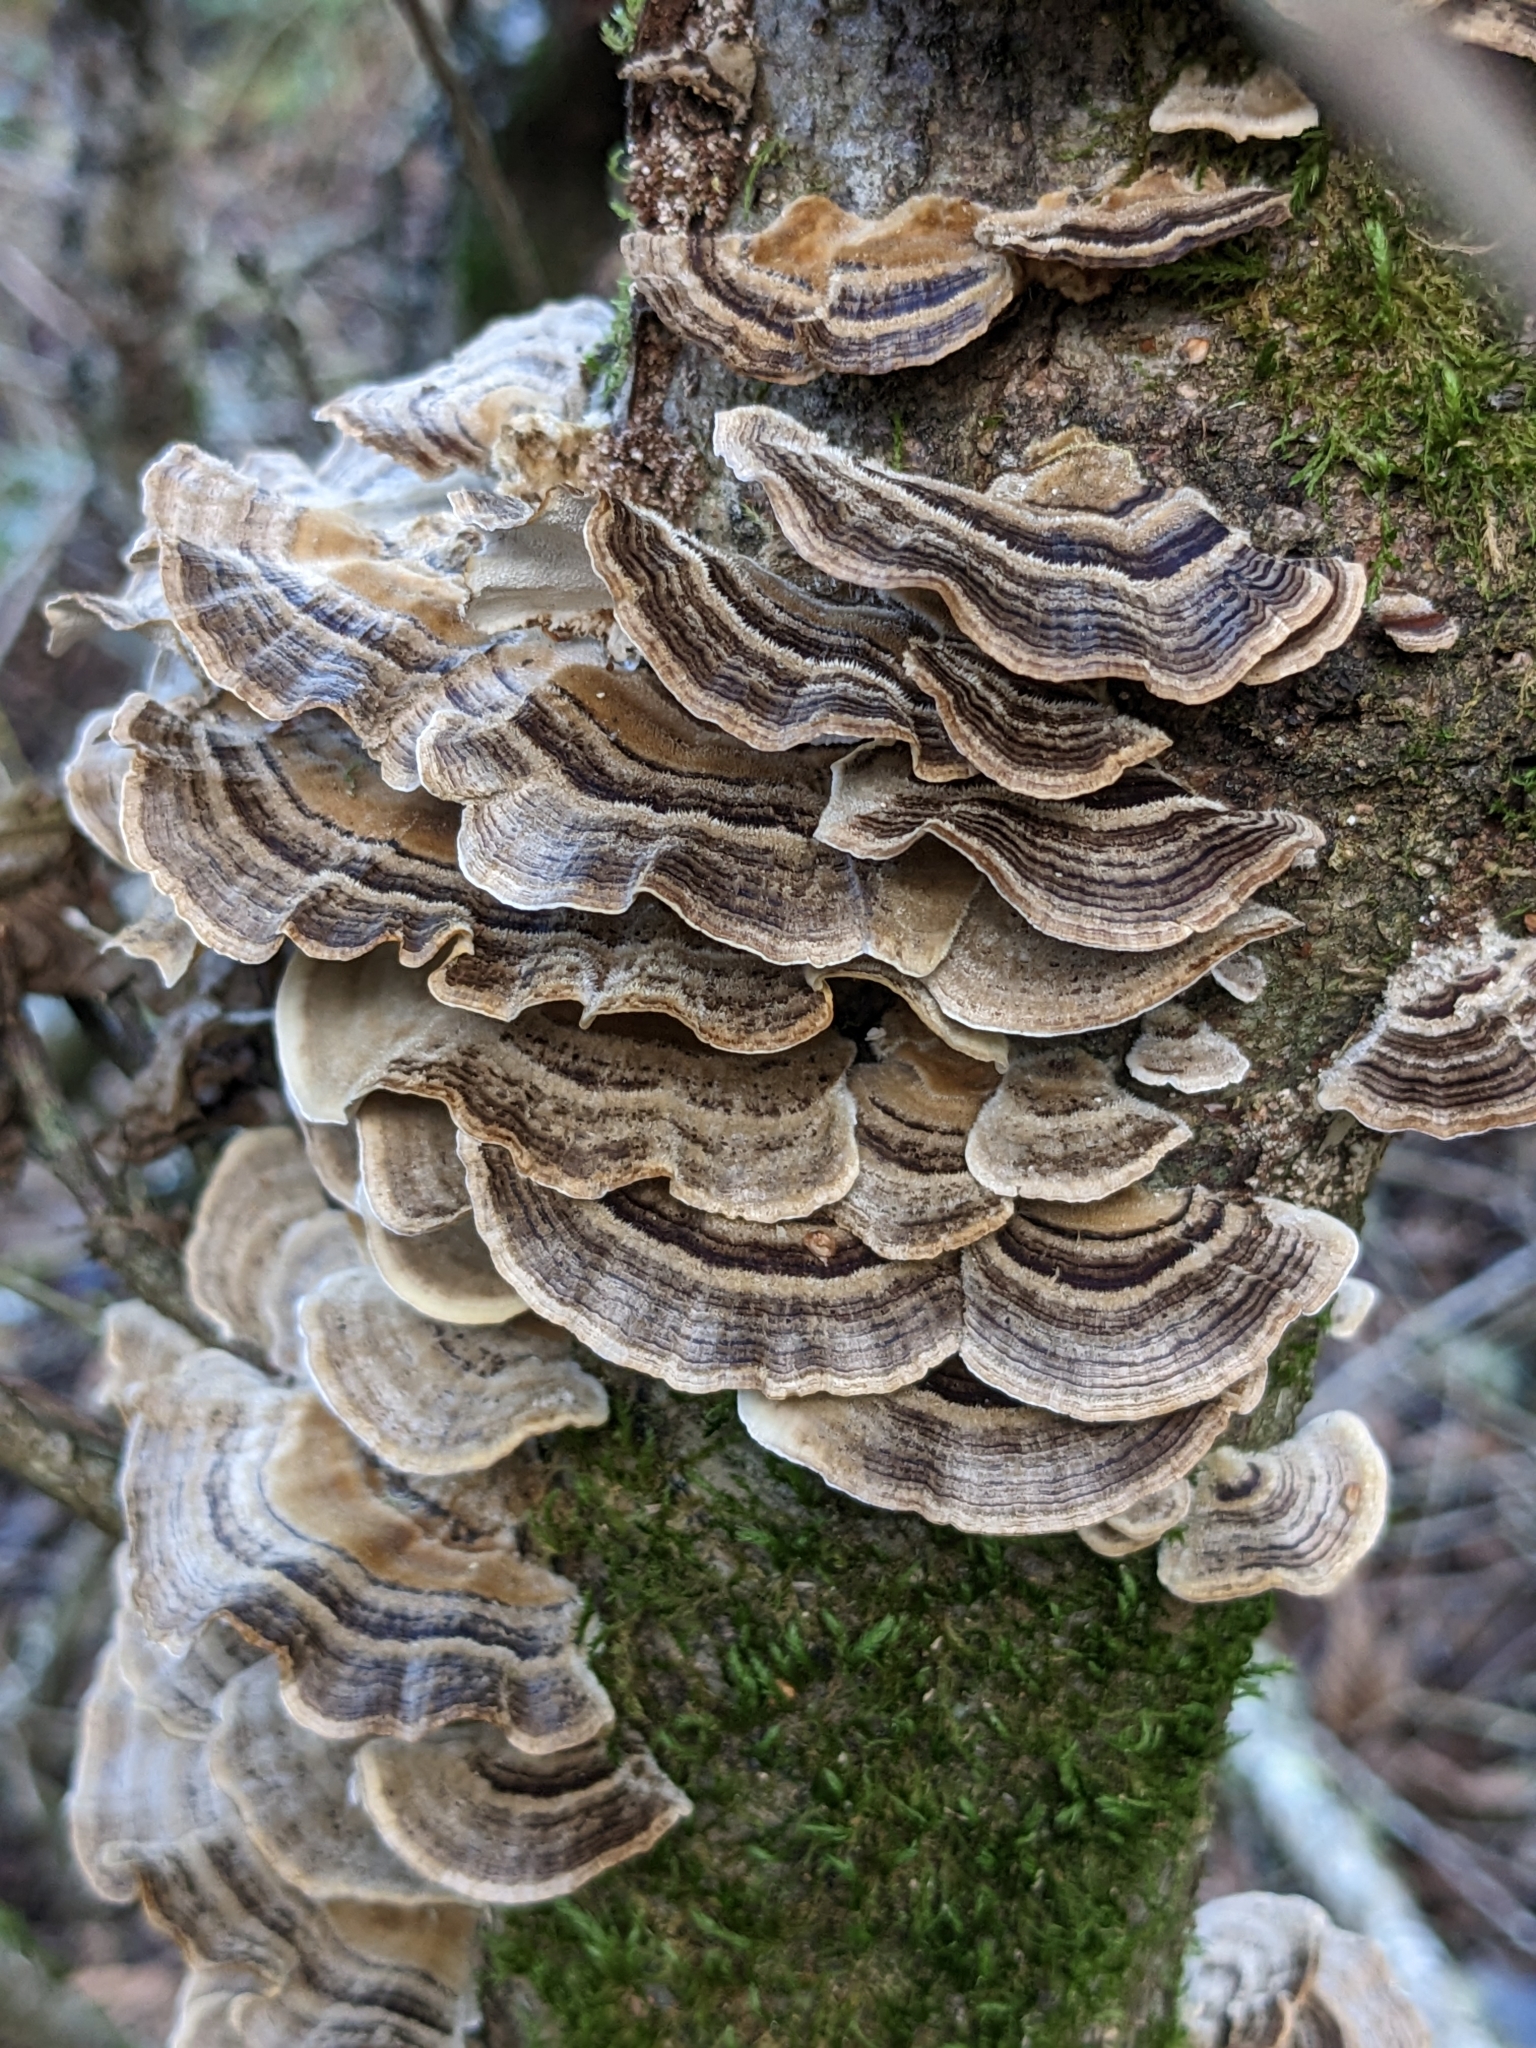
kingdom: Fungi
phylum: Basidiomycota
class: Agaricomycetes
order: Polyporales
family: Polyporaceae
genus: Trametes
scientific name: Trametes versicolor
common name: Turkeytail
